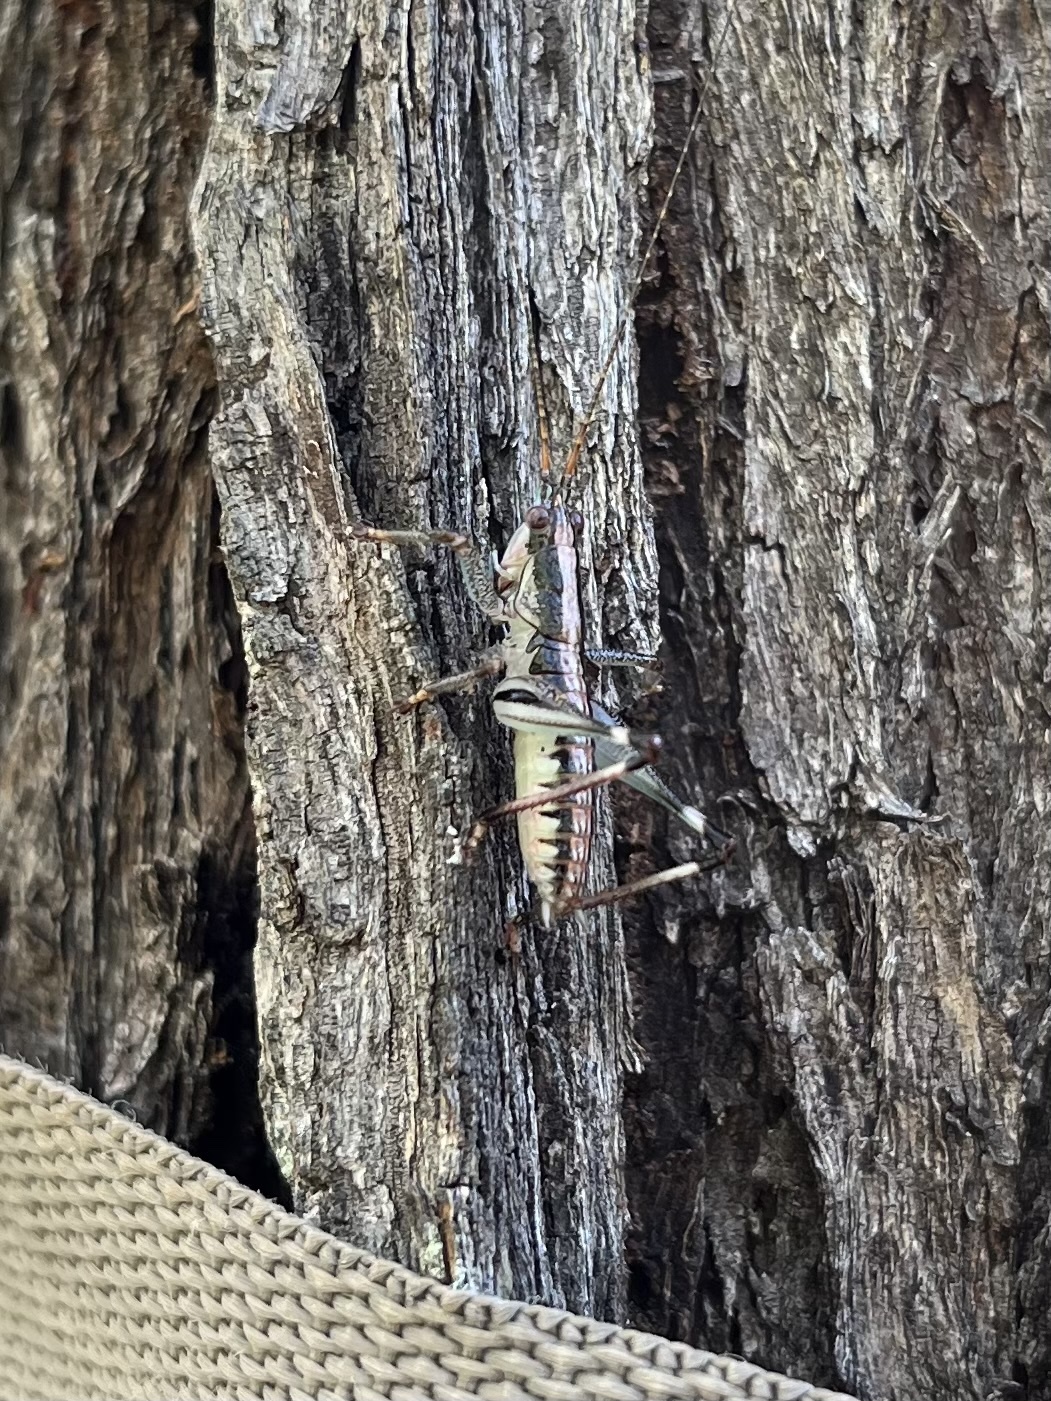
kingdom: Animalia
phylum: Arthropoda
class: Insecta
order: Orthoptera
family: Tettigoniidae
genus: Nicsara
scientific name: Nicsara bifasciata
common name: Striped nicsara
